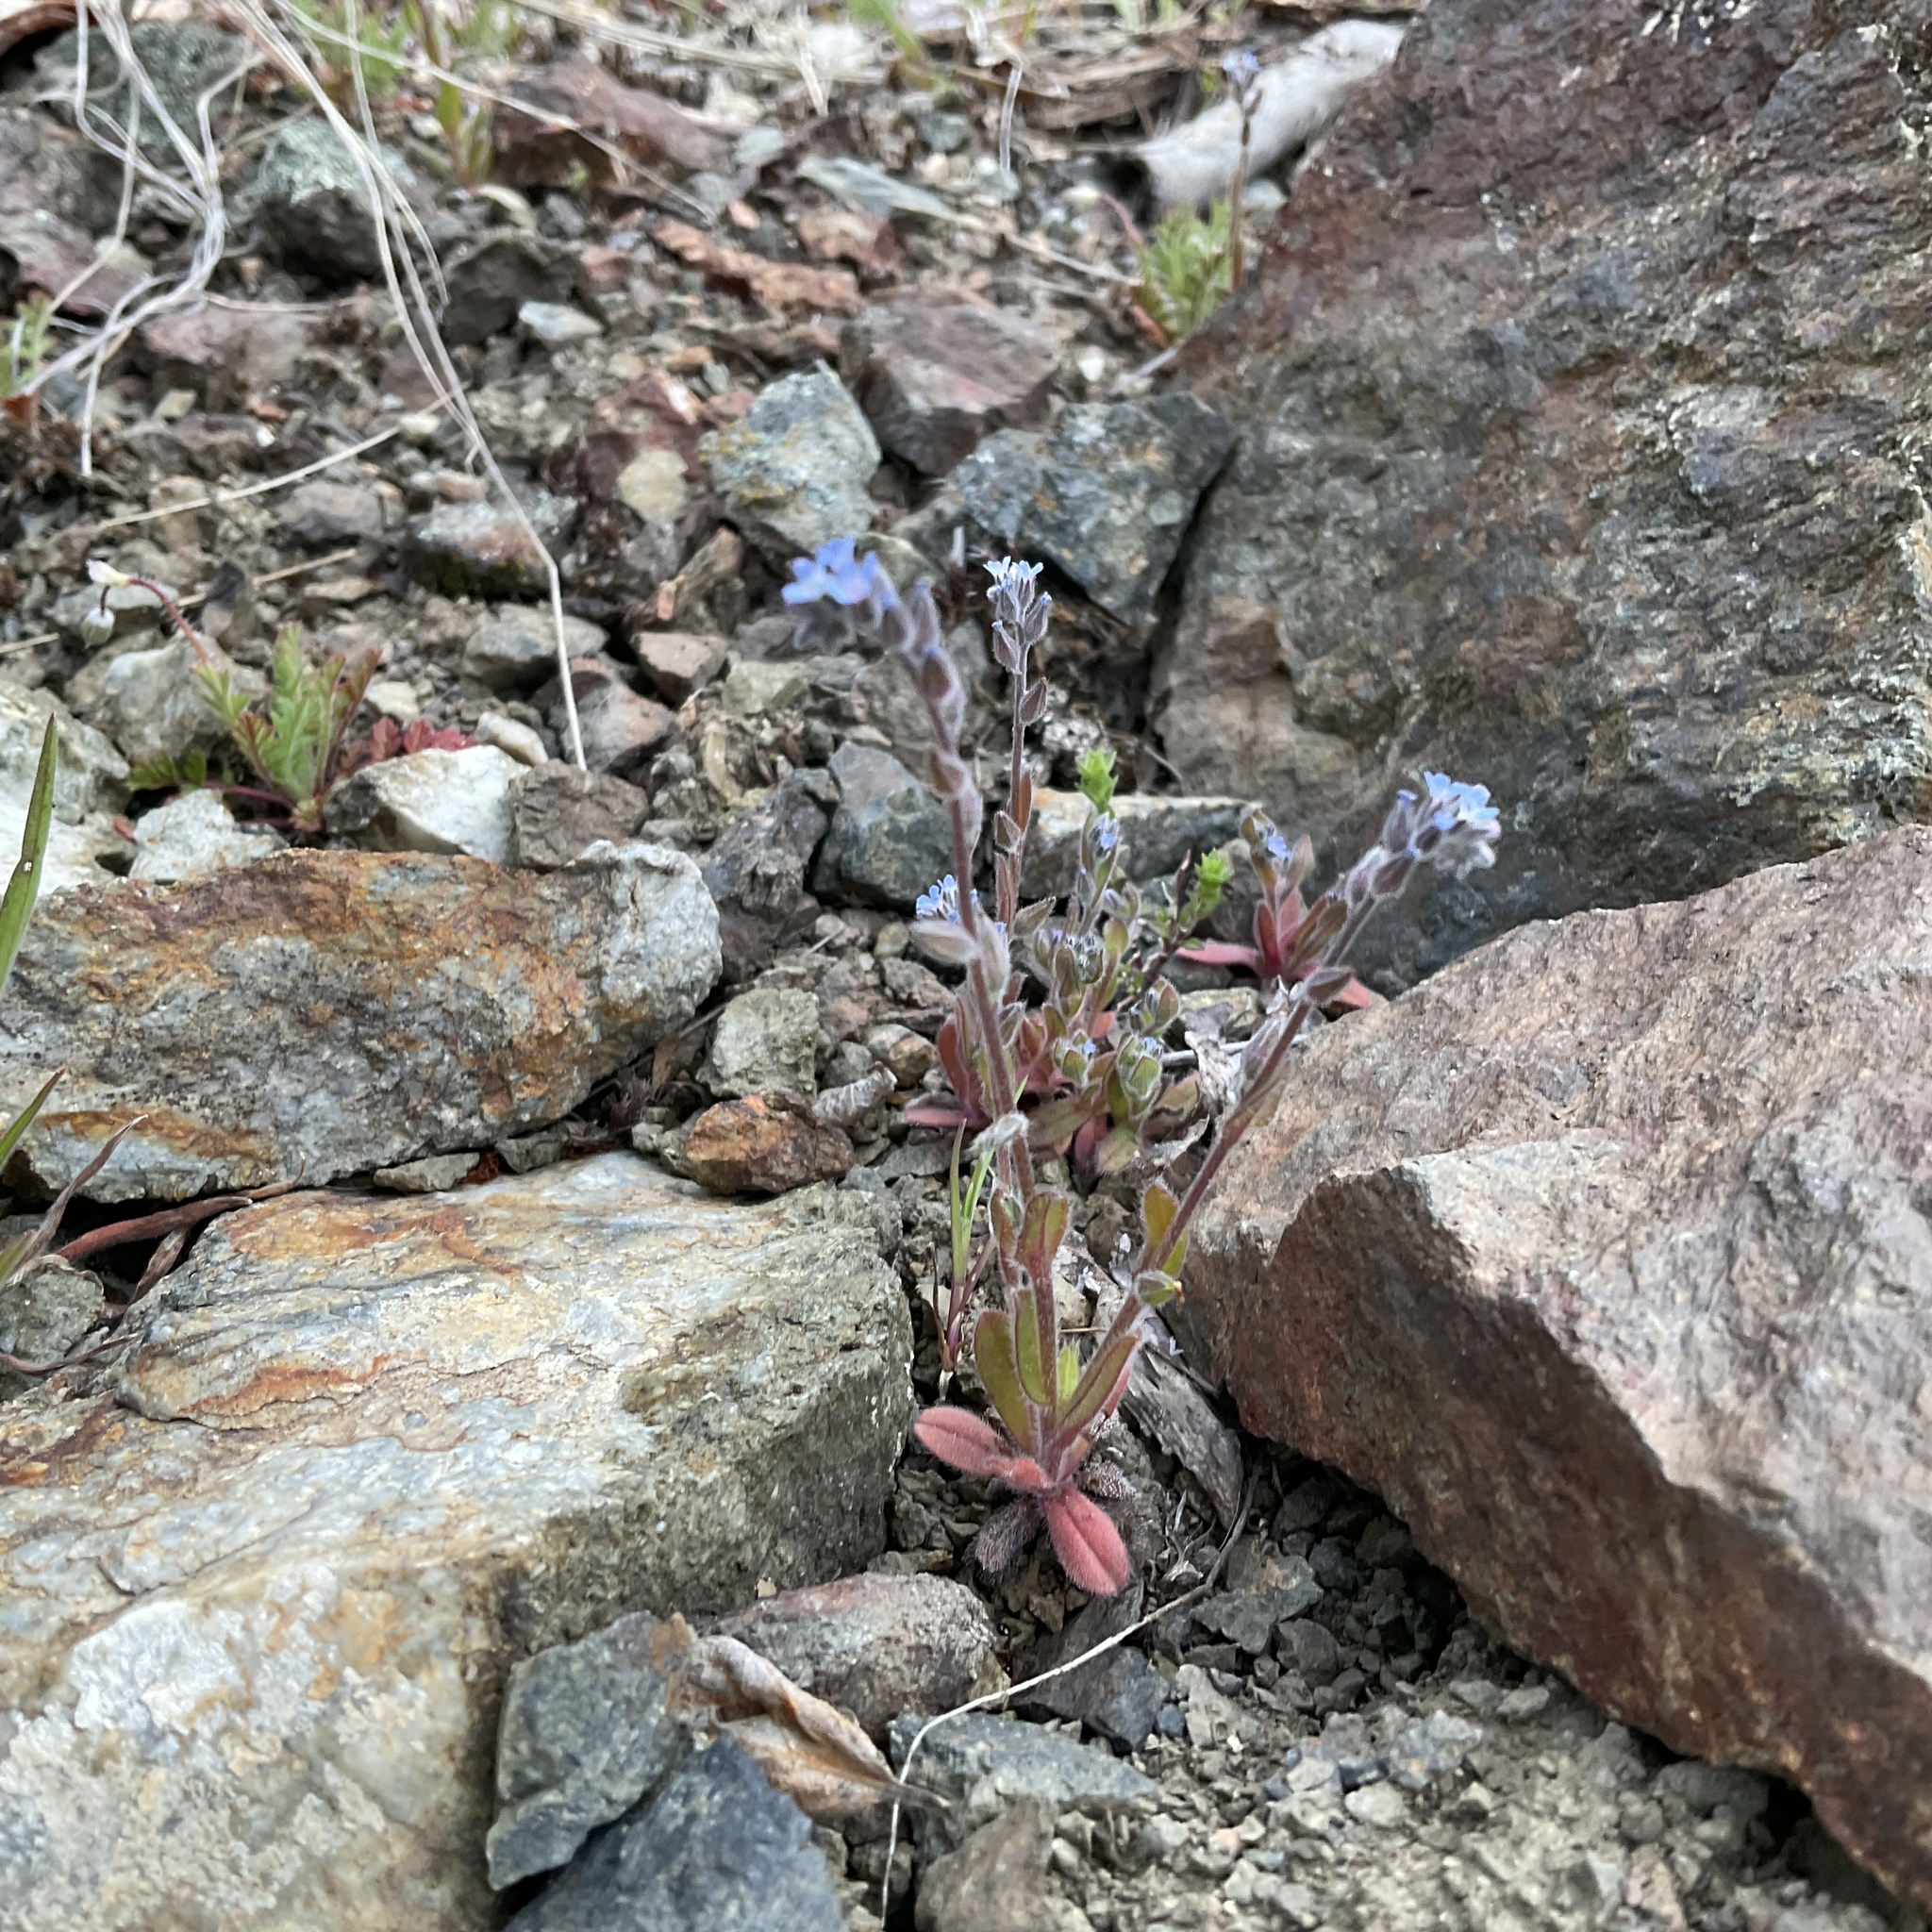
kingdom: Plantae
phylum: Tracheophyta
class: Magnoliopsida
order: Boraginales
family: Boraginaceae
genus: Myosotis
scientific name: Myosotis stricta
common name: Strict forget-me-not
